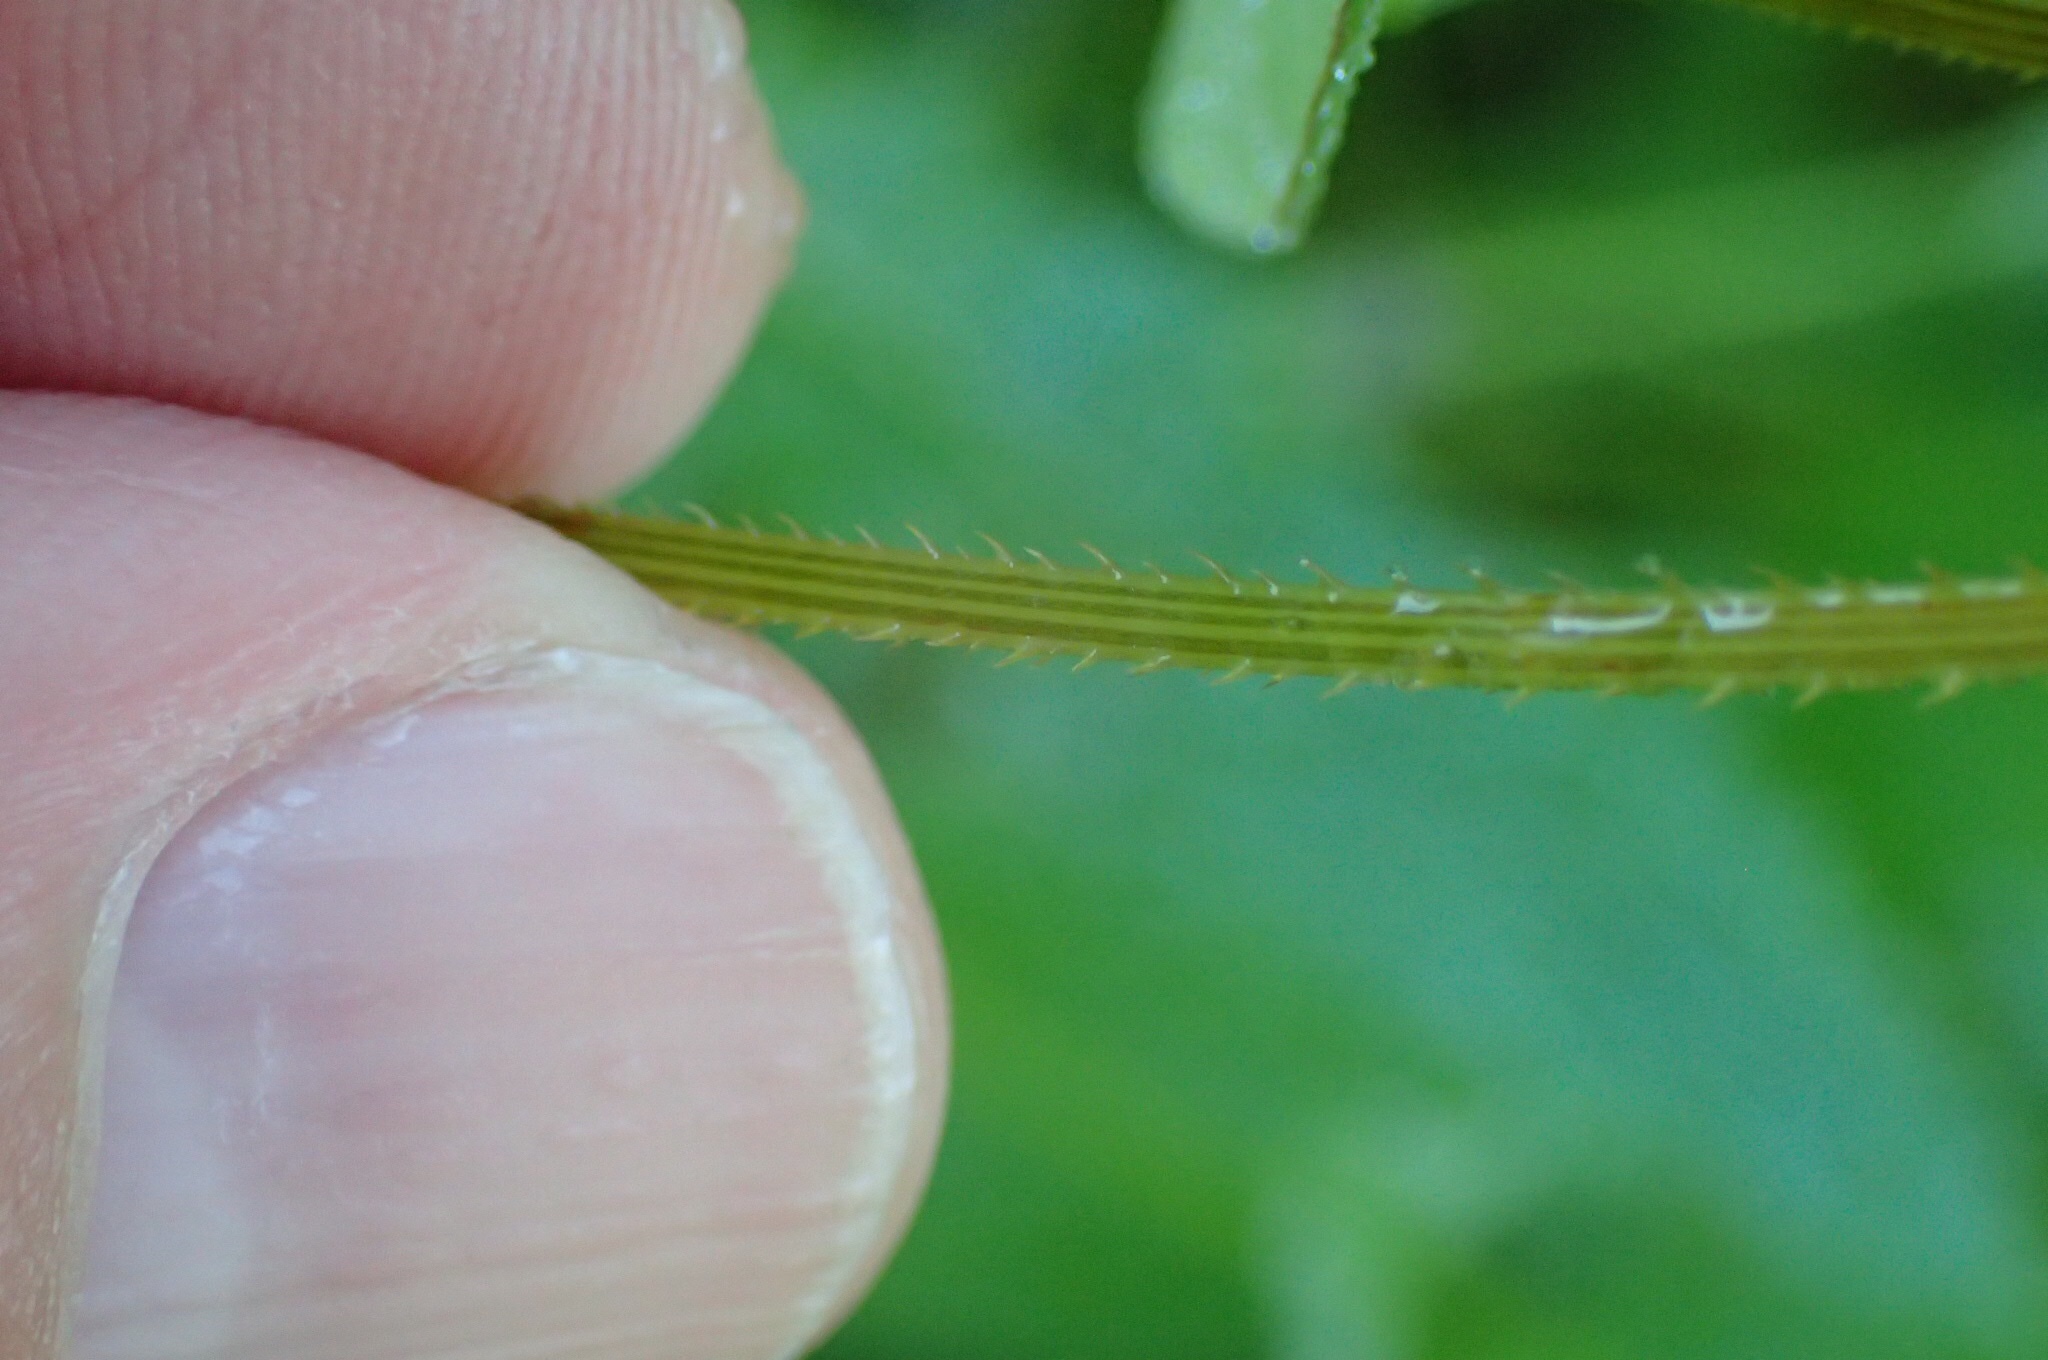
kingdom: Plantae
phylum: Tracheophyta
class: Magnoliopsida
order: Caryophyllales
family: Polygonaceae
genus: Persicaria
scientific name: Persicaria sagittata
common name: American tearthumb
